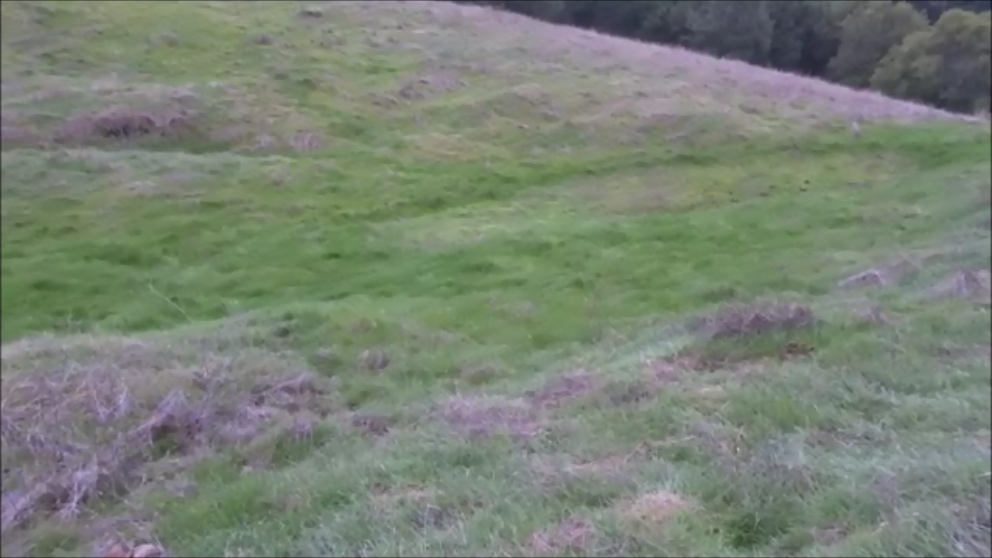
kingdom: Animalia
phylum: Chordata
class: Amphibia
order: Anura
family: Hylidae
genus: Pseudacris
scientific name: Pseudacris regilla
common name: Pacific chorus frog
